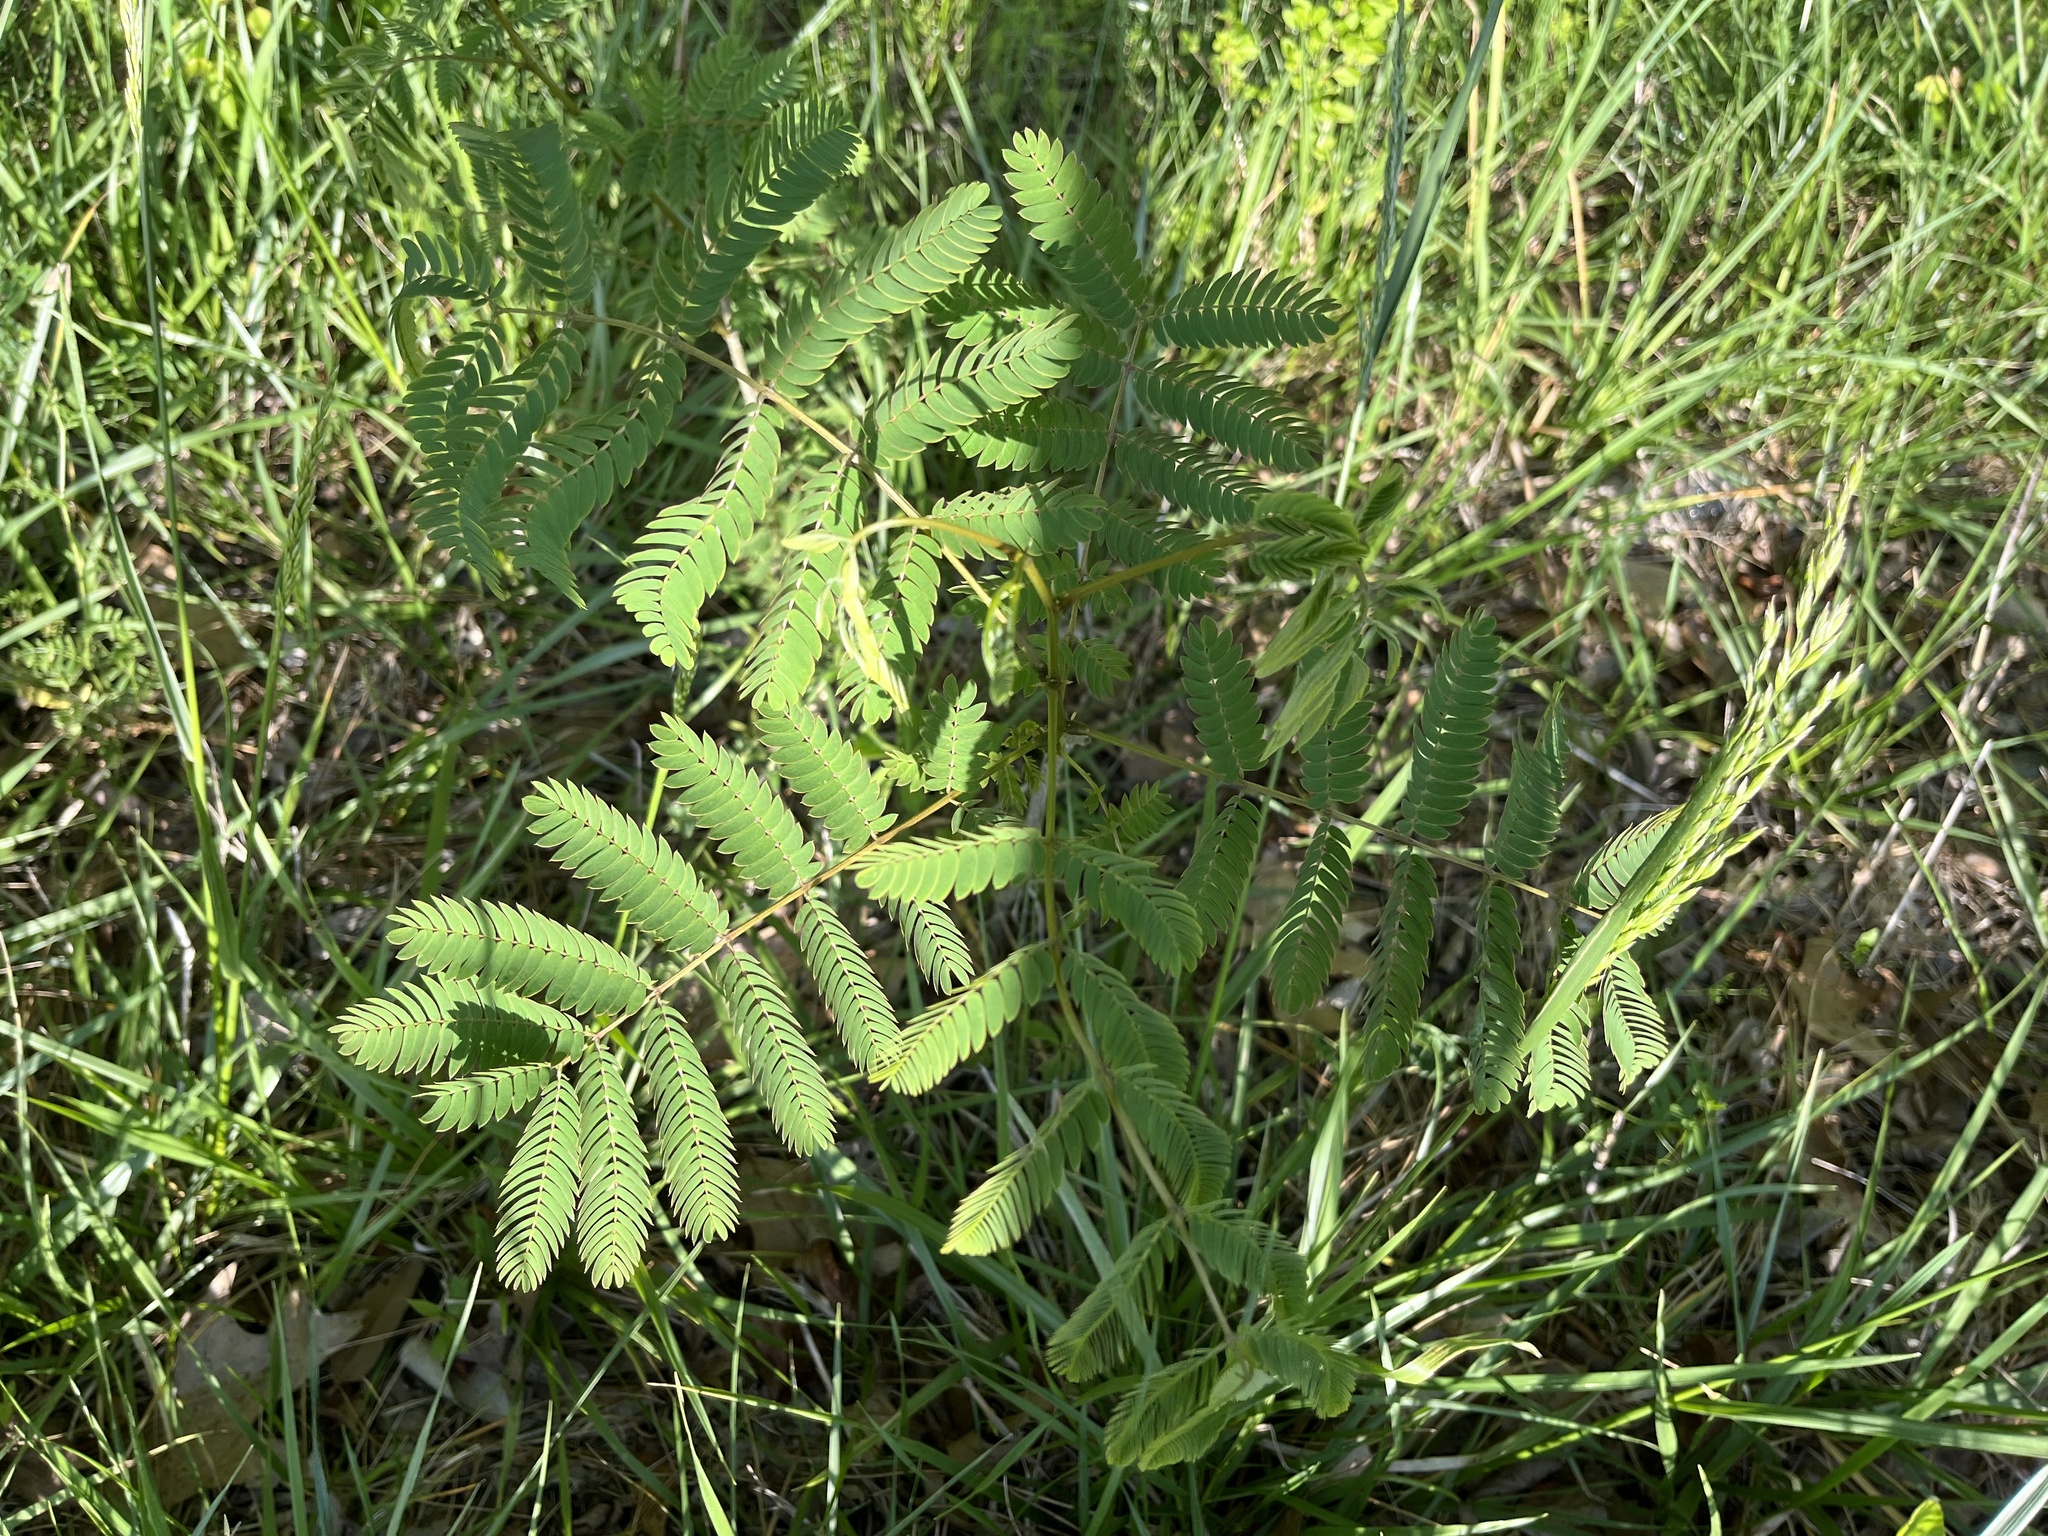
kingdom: Plantae
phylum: Tracheophyta
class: Magnoliopsida
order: Fabales
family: Fabaceae
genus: Albizia
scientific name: Albizia julibrissin
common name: Silktree
